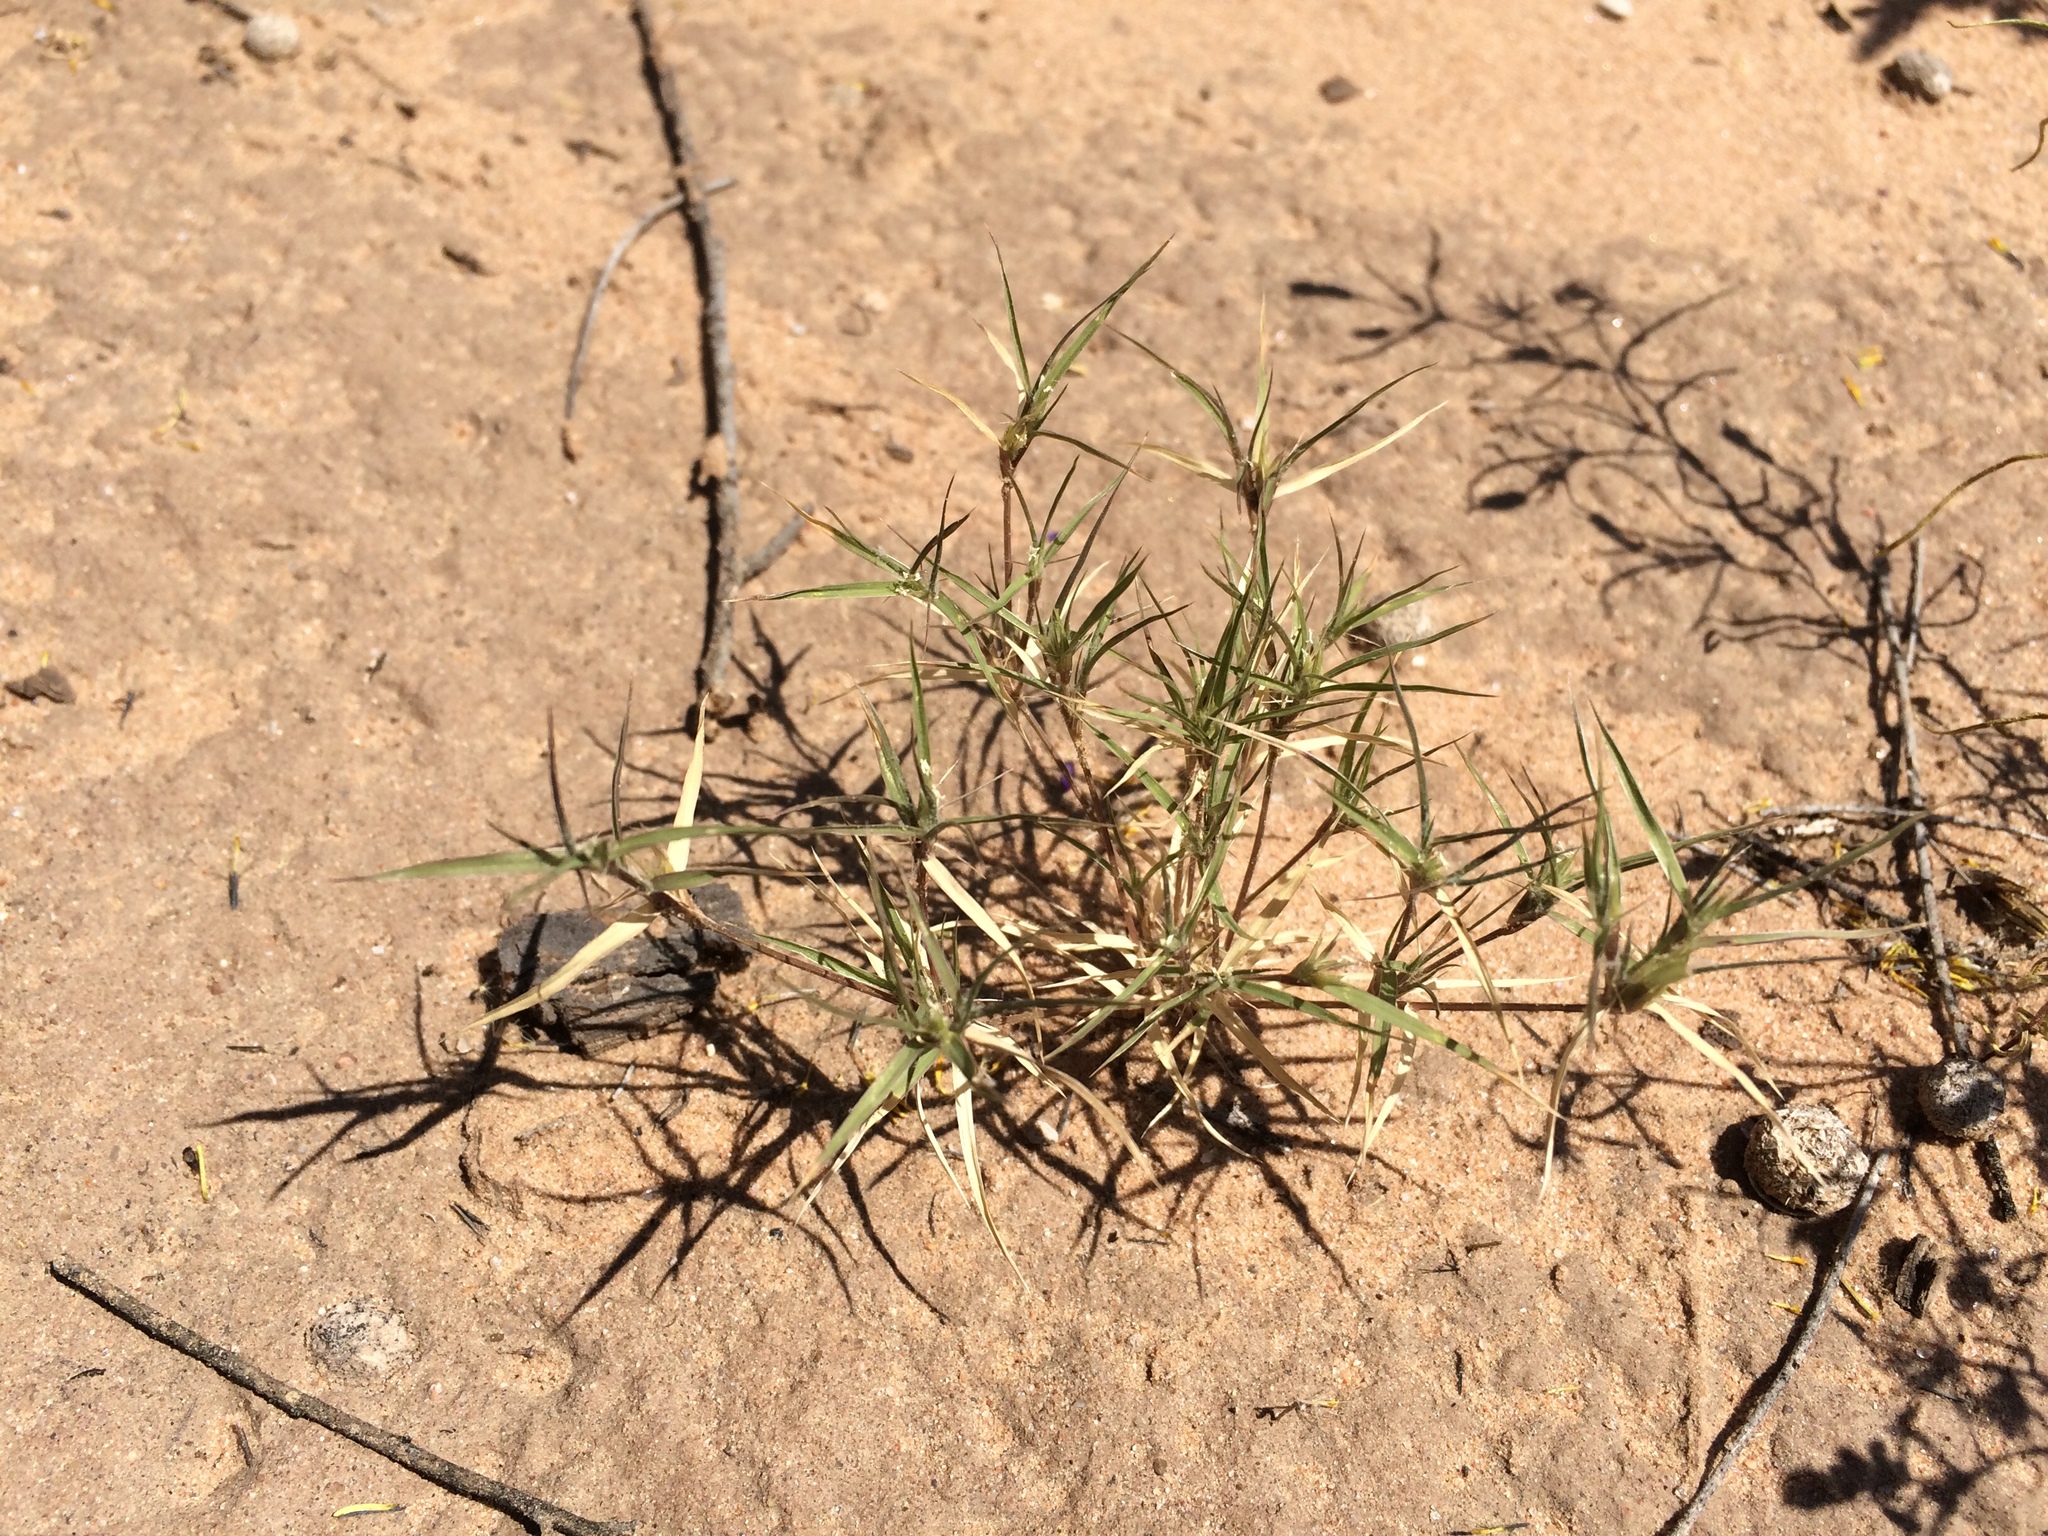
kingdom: Plantae
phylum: Tracheophyta
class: Liliopsida
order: Poales
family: Poaceae
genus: Munroa
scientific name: Munroa squarrosa
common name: False buffalo grass
